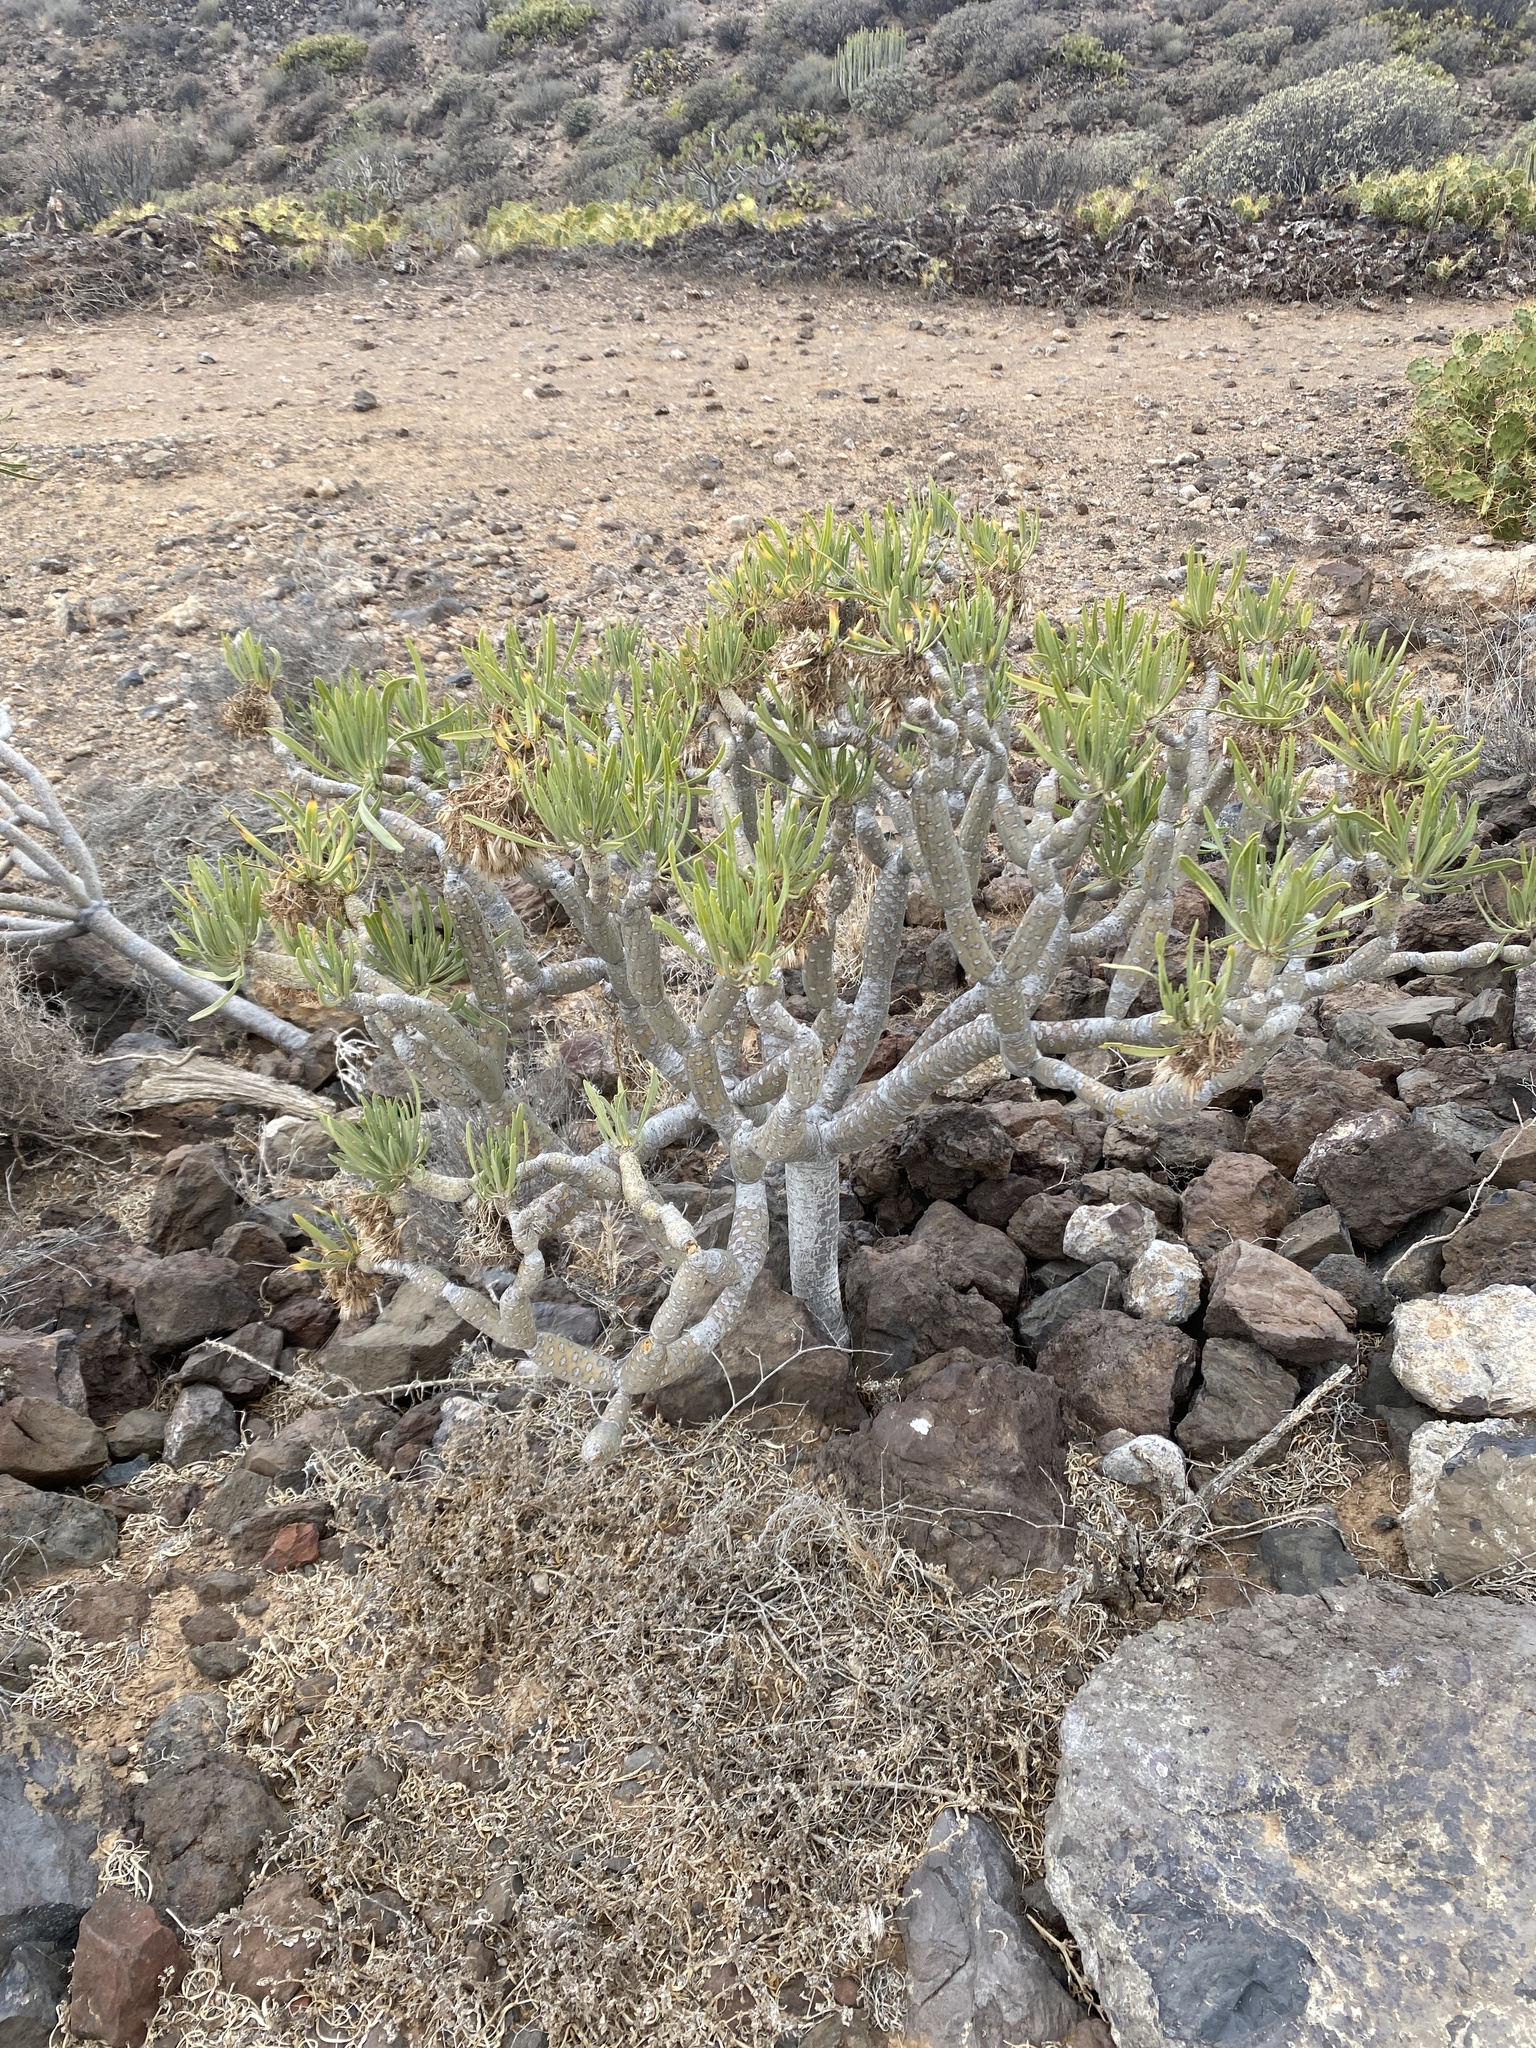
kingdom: Plantae
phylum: Tracheophyta
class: Magnoliopsida
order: Asterales
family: Asteraceae
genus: Kleinia
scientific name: Kleinia neriifolia
